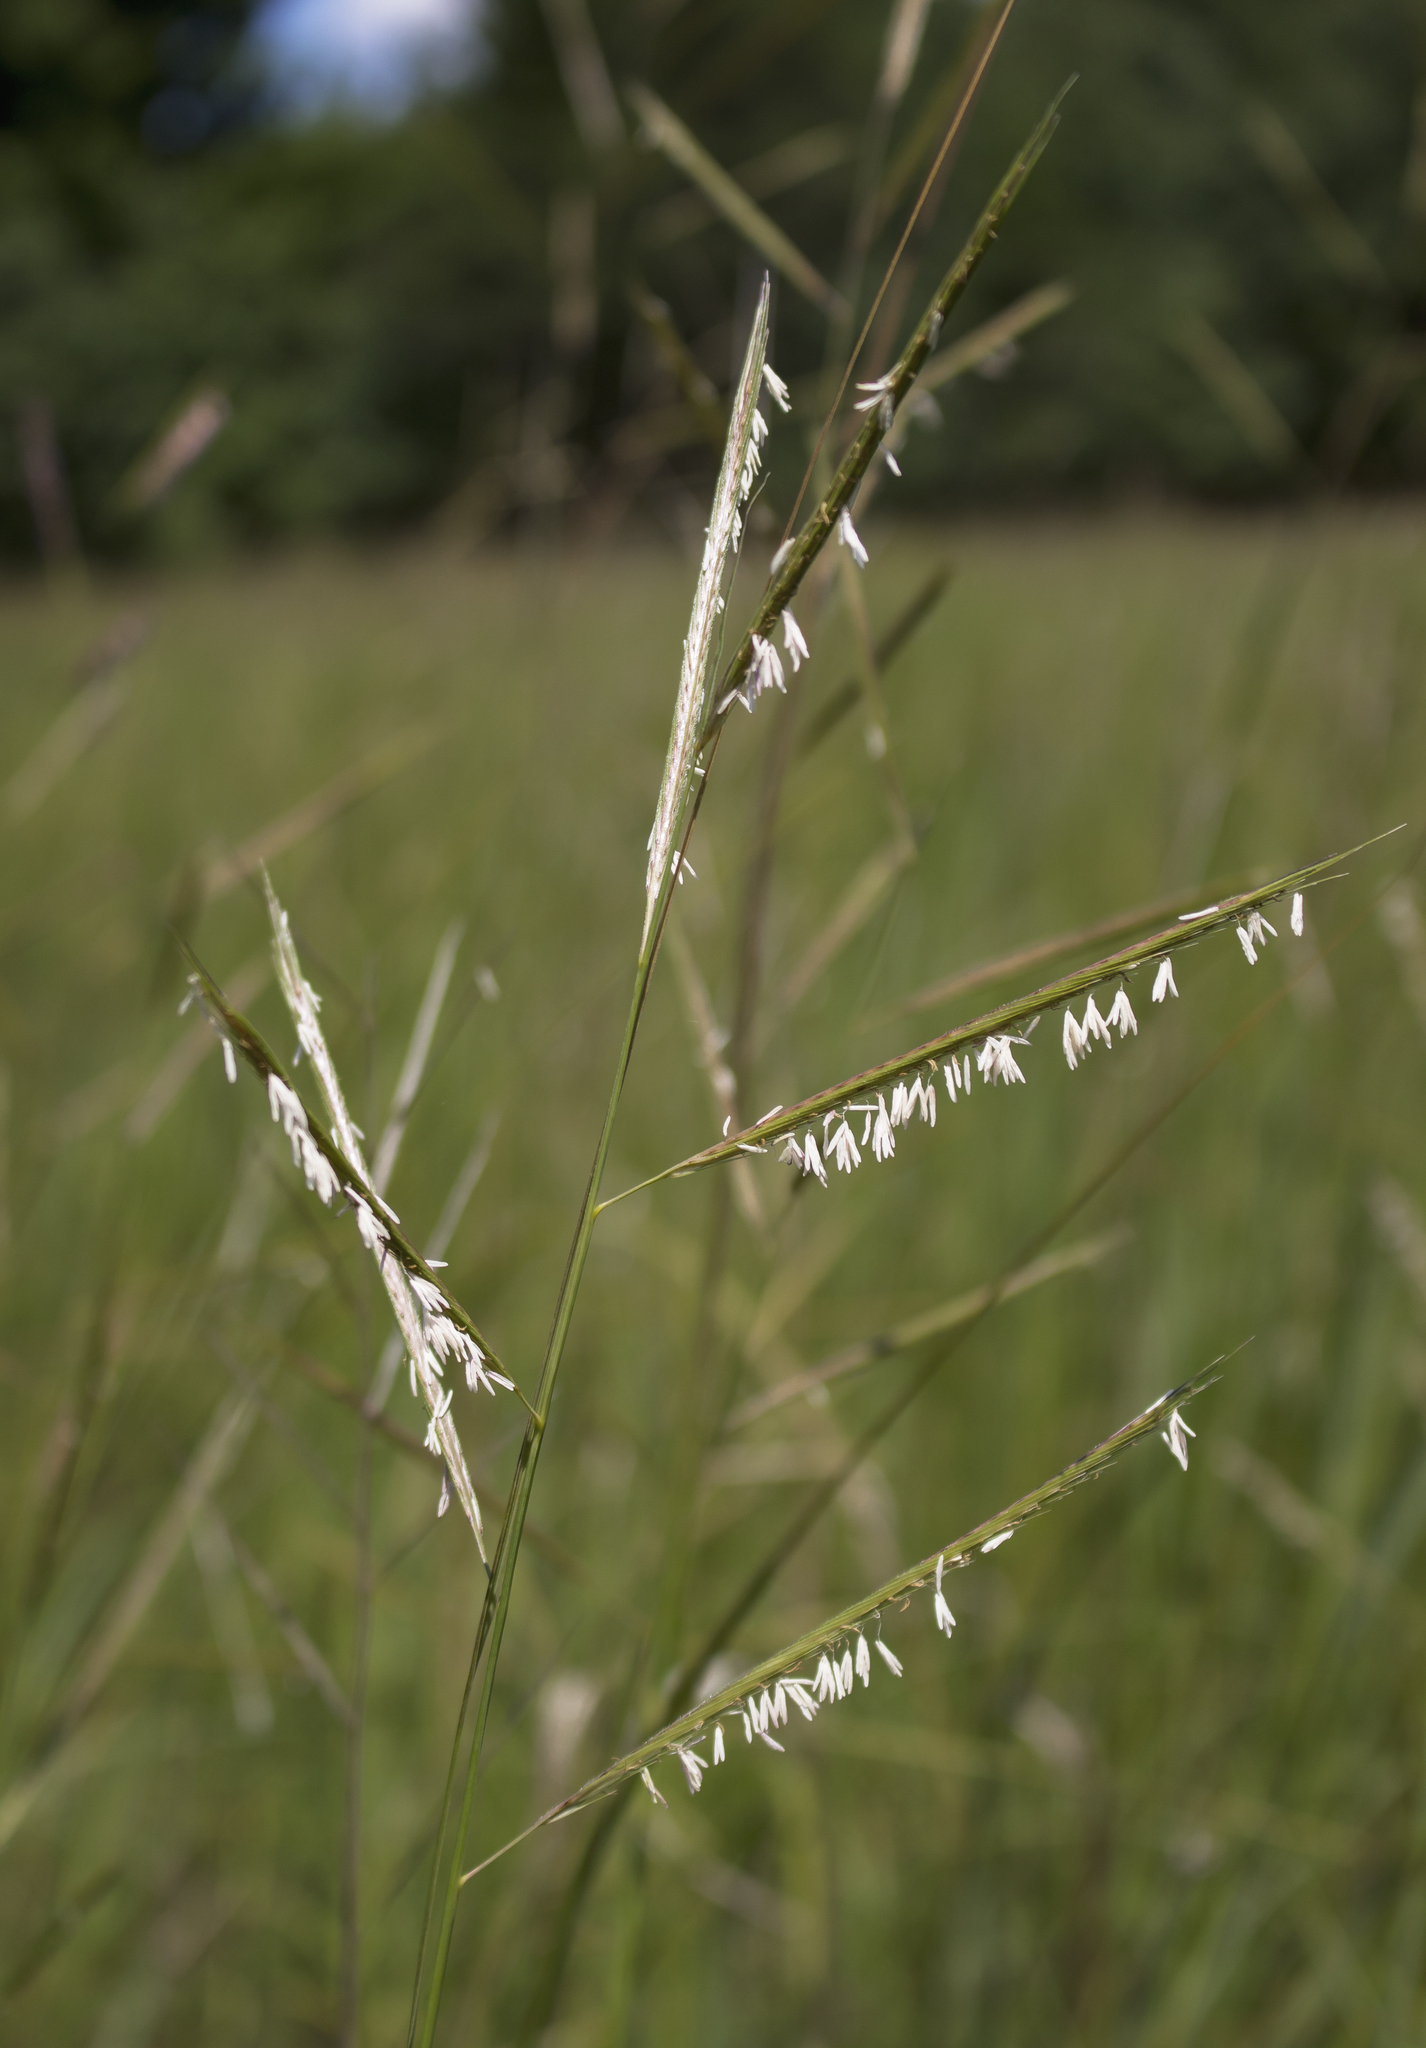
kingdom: Plantae
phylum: Tracheophyta
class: Liliopsida
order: Poales
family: Poaceae
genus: Sporobolus
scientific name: Sporobolus michauxianus
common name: Freshwater cordgrass
